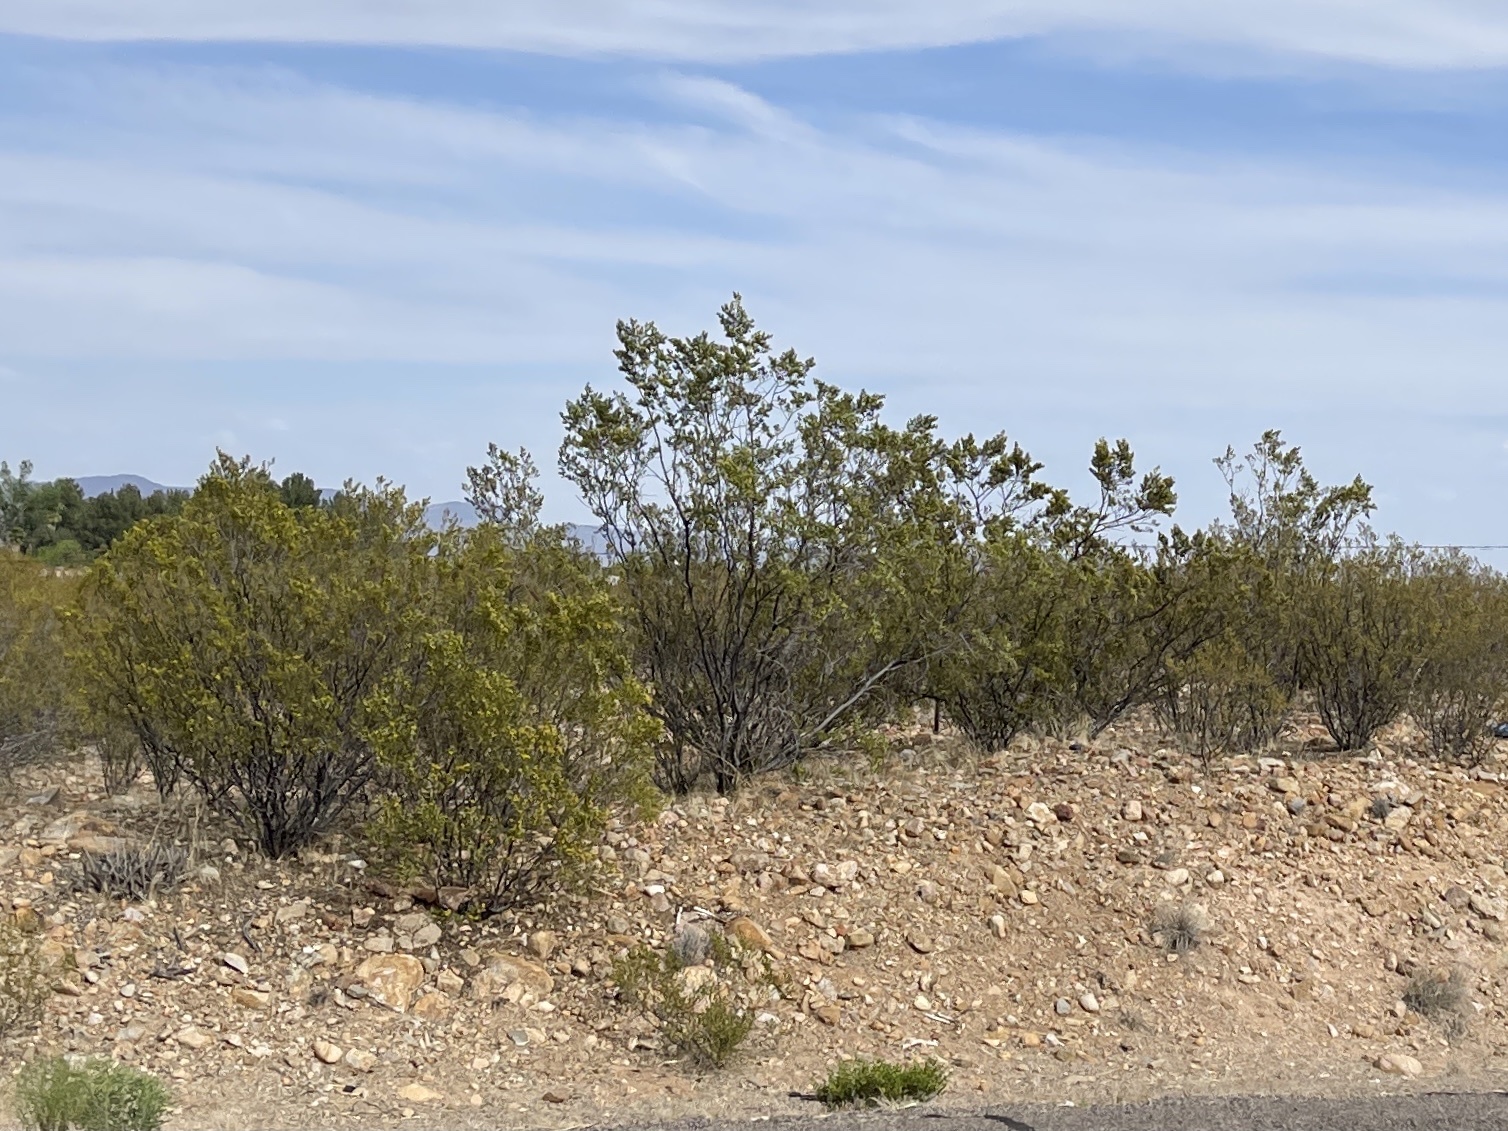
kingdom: Plantae
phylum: Tracheophyta
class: Magnoliopsida
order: Zygophyllales
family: Zygophyllaceae
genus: Larrea
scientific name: Larrea tridentata
